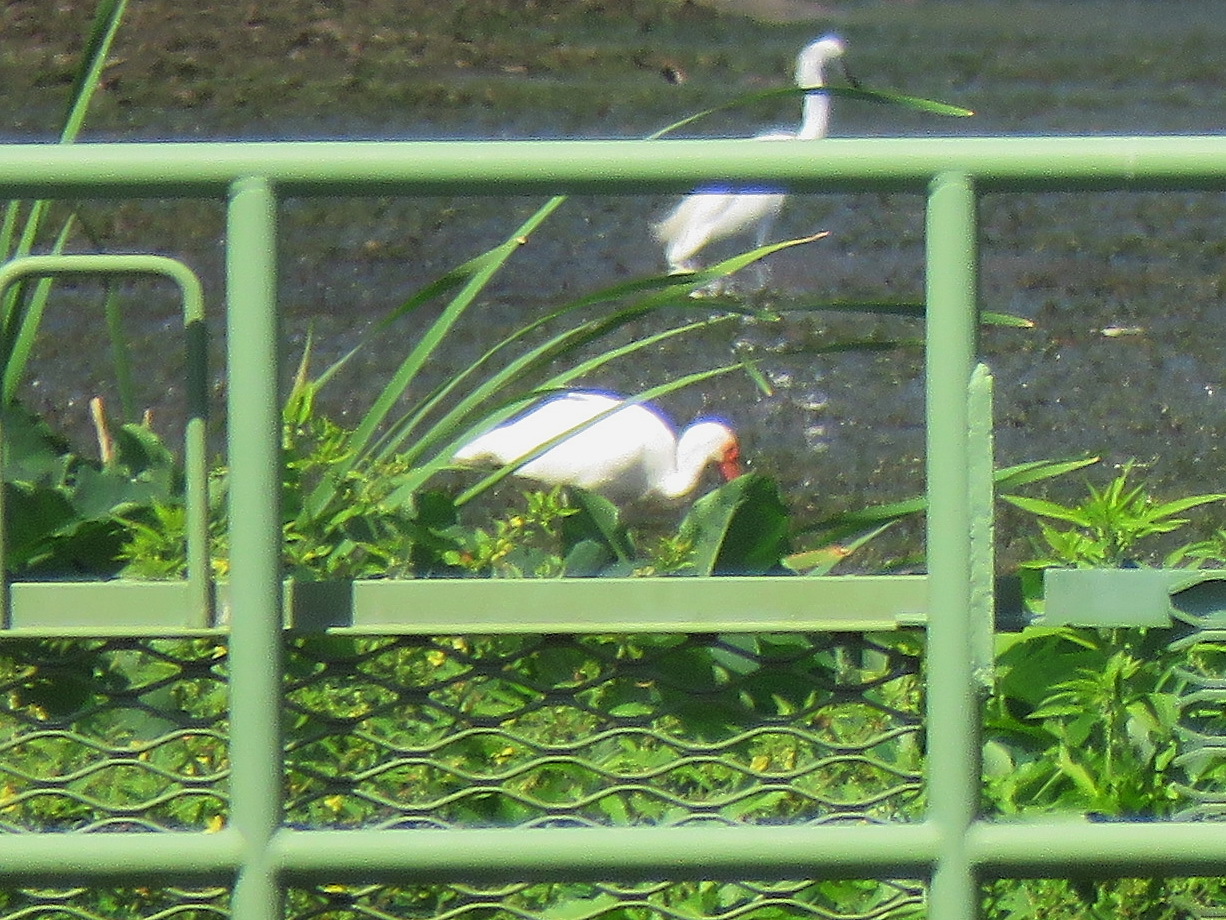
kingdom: Animalia
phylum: Chordata
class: Aves
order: Pelecaniformes
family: Threskiornithidae
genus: Eudocimus
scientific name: Eudocimus albus
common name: White ibis
